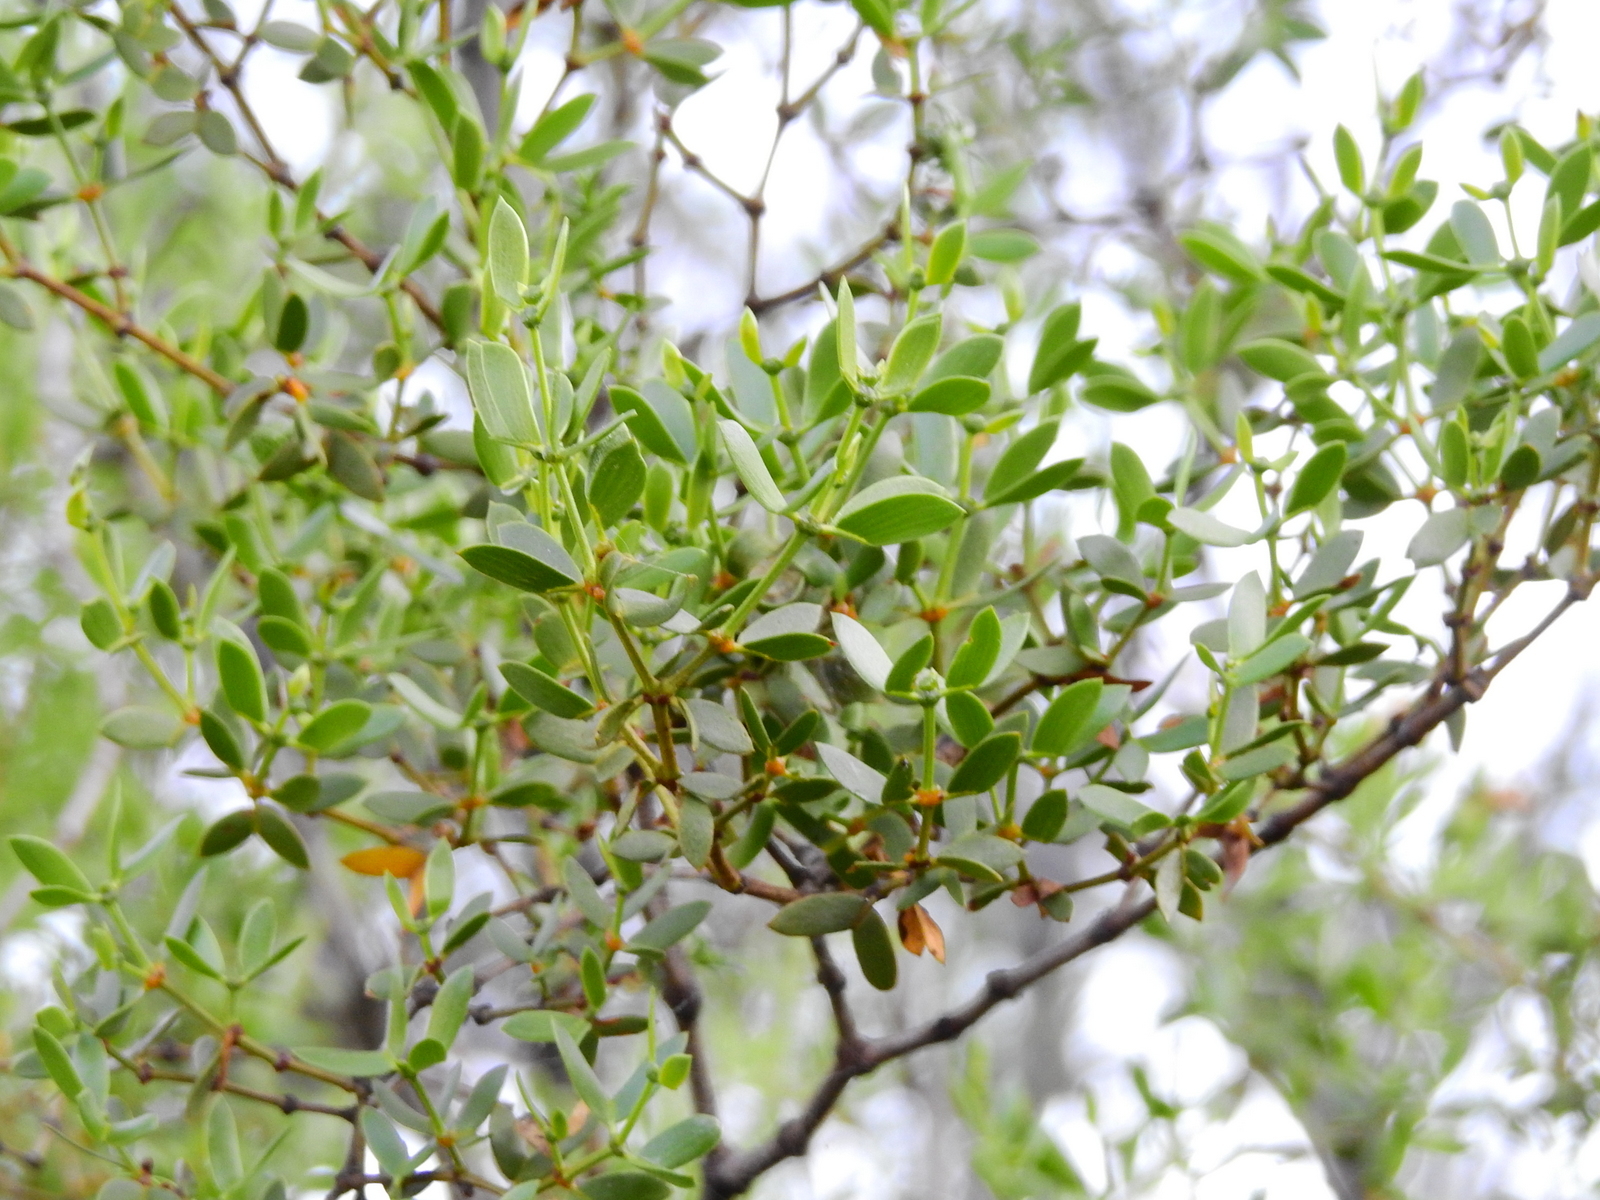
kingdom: Plantae
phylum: Tracheophyta
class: Magnoliopsida
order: Zygophyllales
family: Zygophyllaceae
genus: Larrea
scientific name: Larrea divaricata
